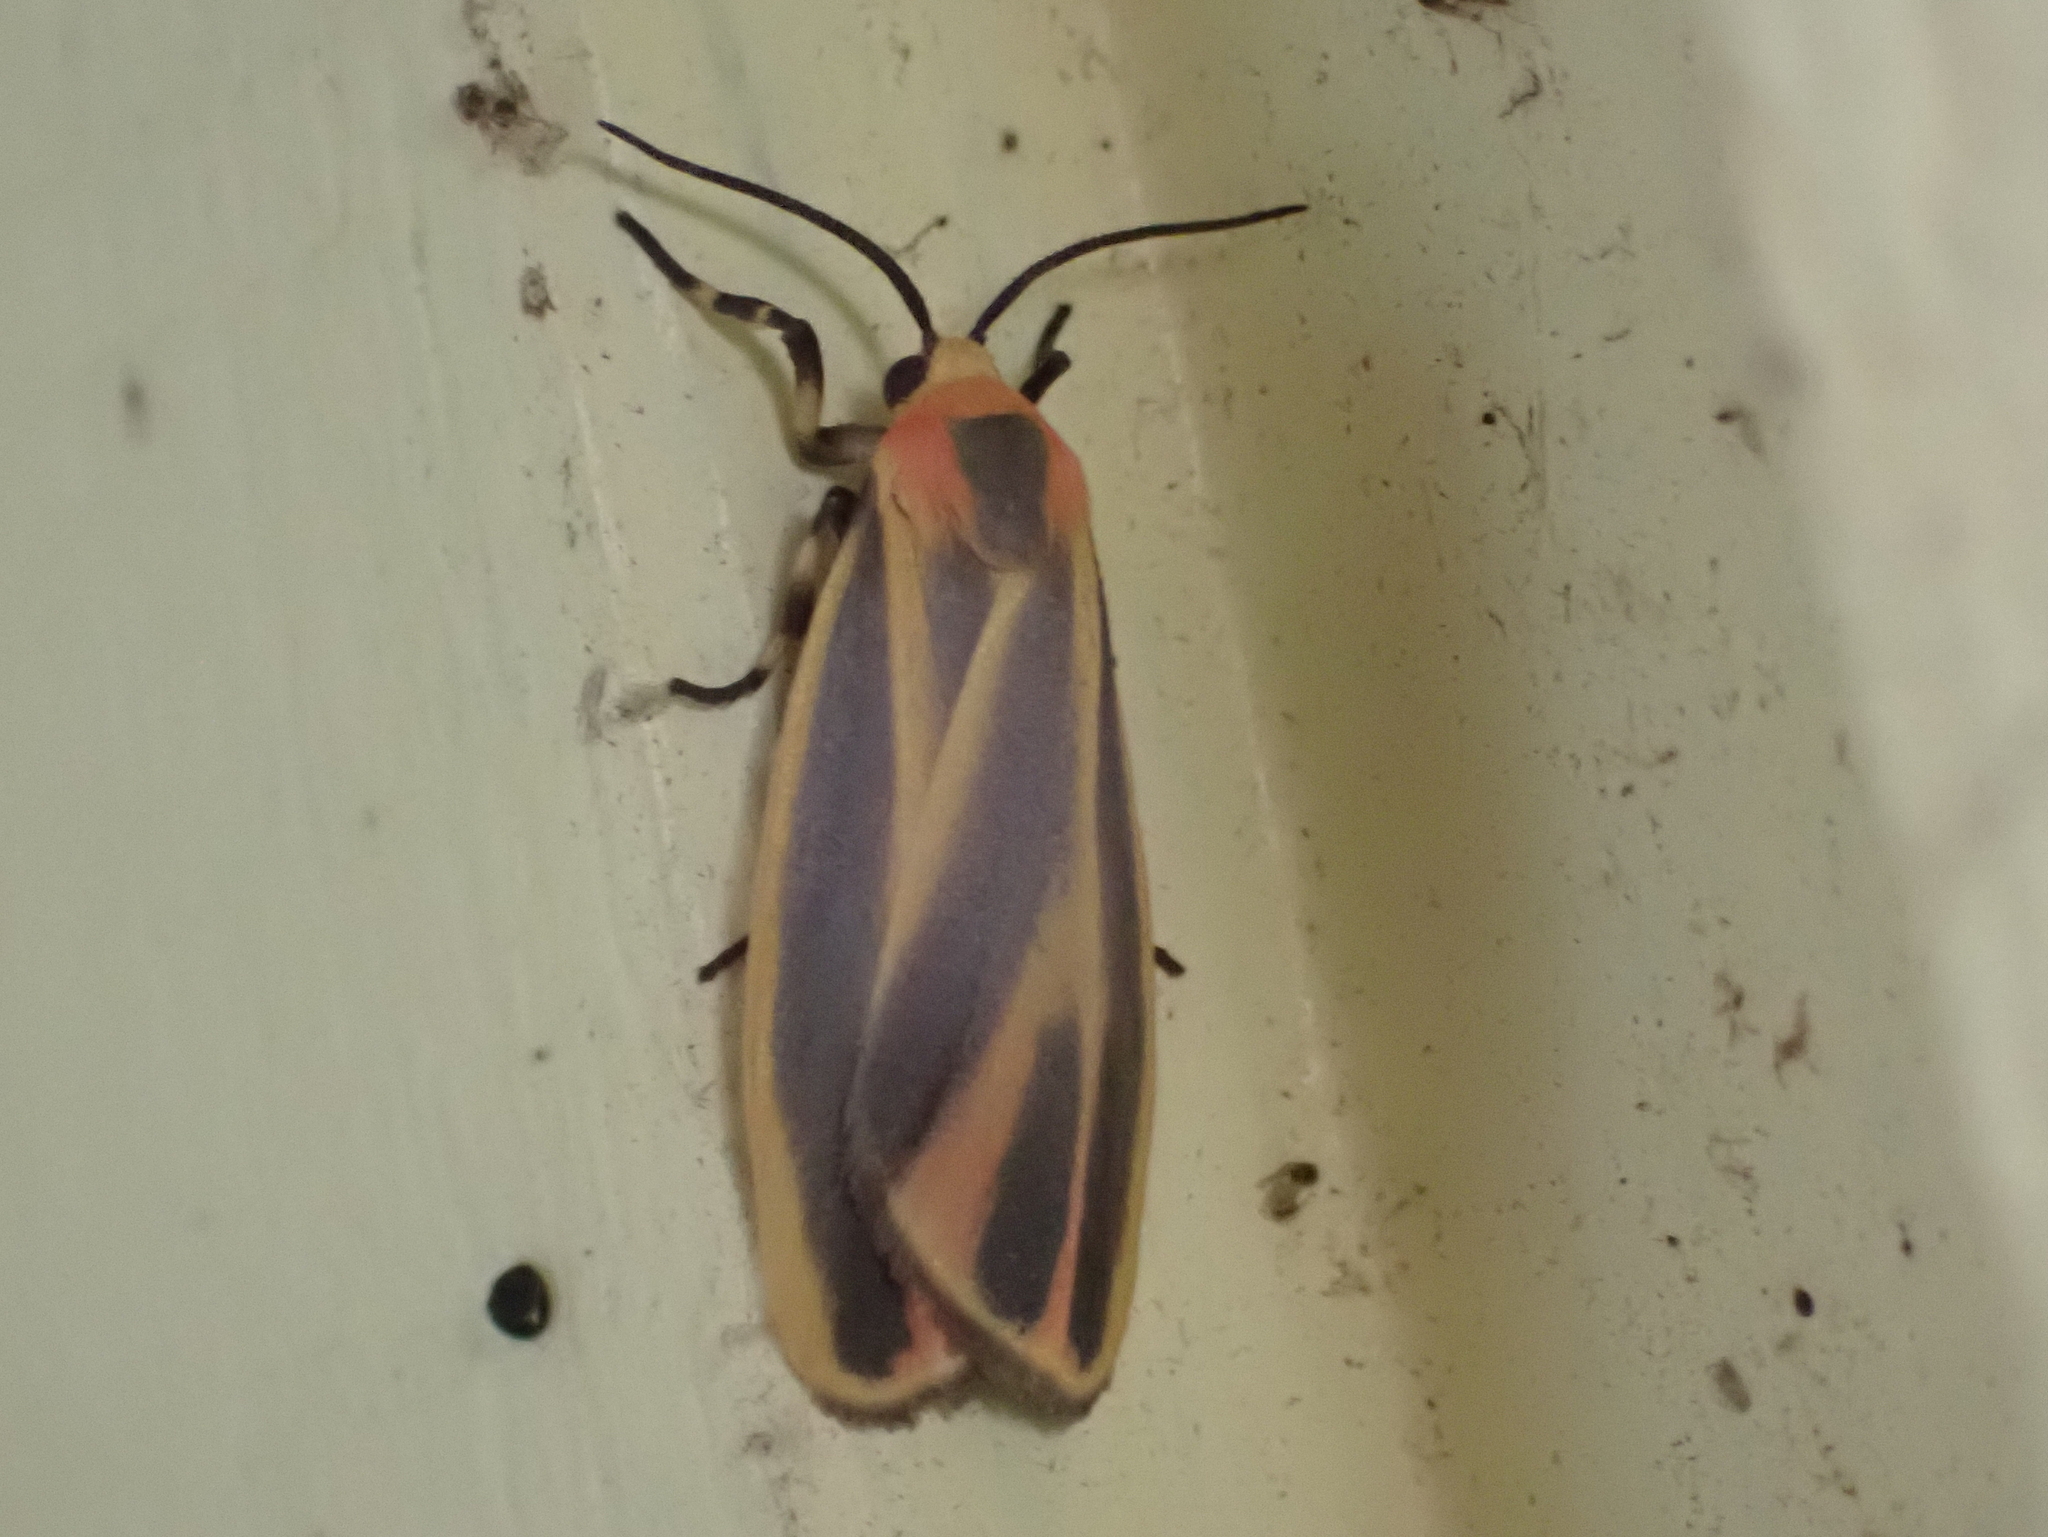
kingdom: Animalia
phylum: Arthropoda
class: Insecta
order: Lepidoptera
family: Erebidae
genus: Hypoprepia
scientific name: Hypoprepia fucosa
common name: Painted lichen moth
